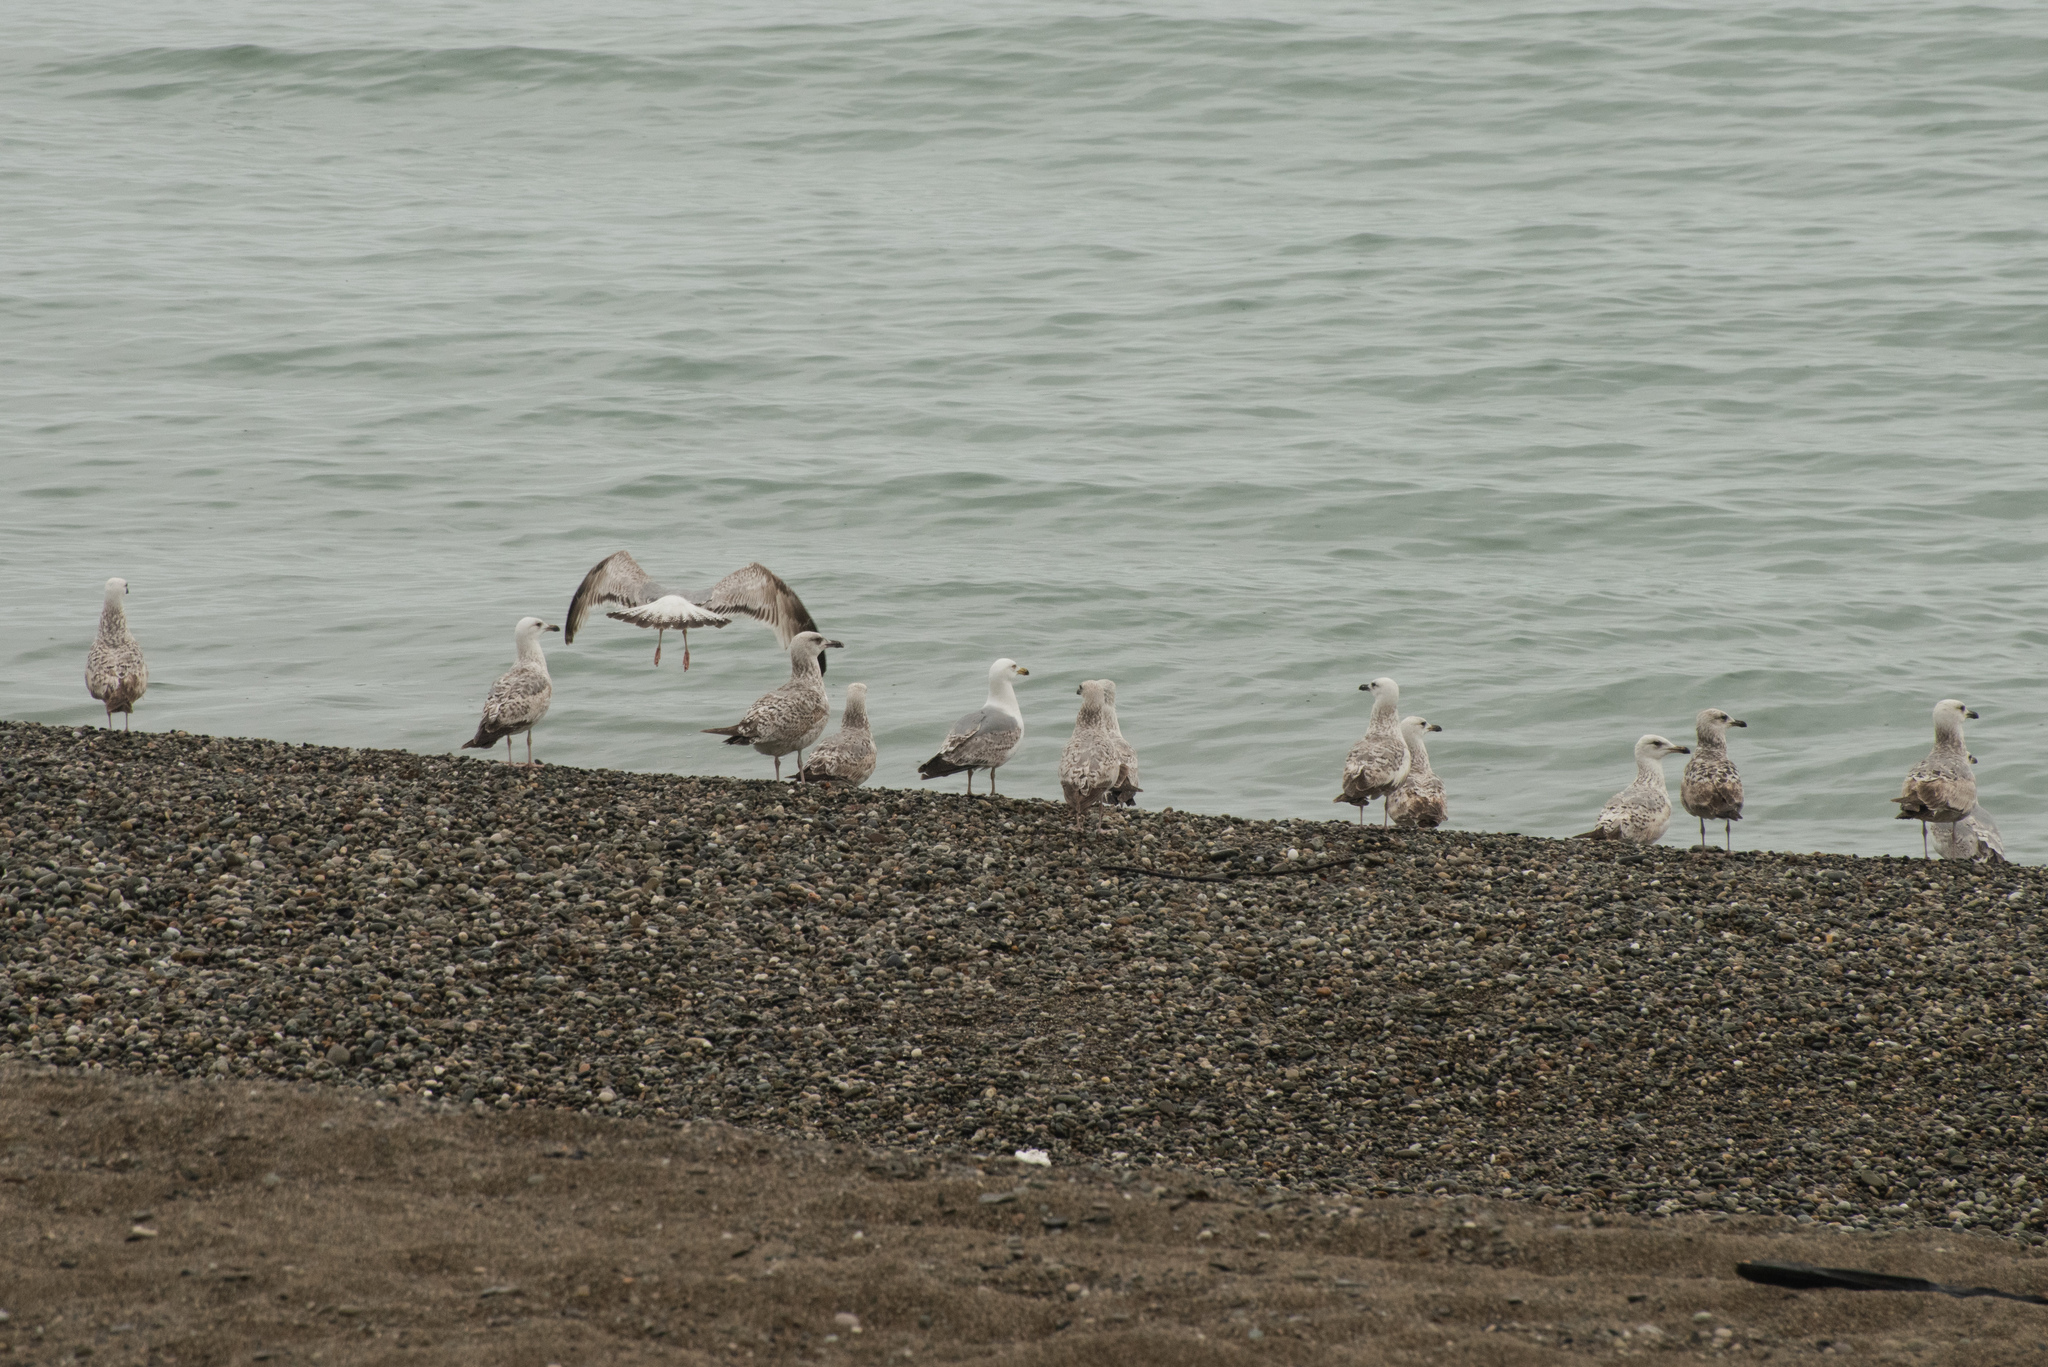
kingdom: Animalia
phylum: Chordata
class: Aves
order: Charadriiformes
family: Laridae
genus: Larus
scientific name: Larus michahellis
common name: Yellow-legged gull
